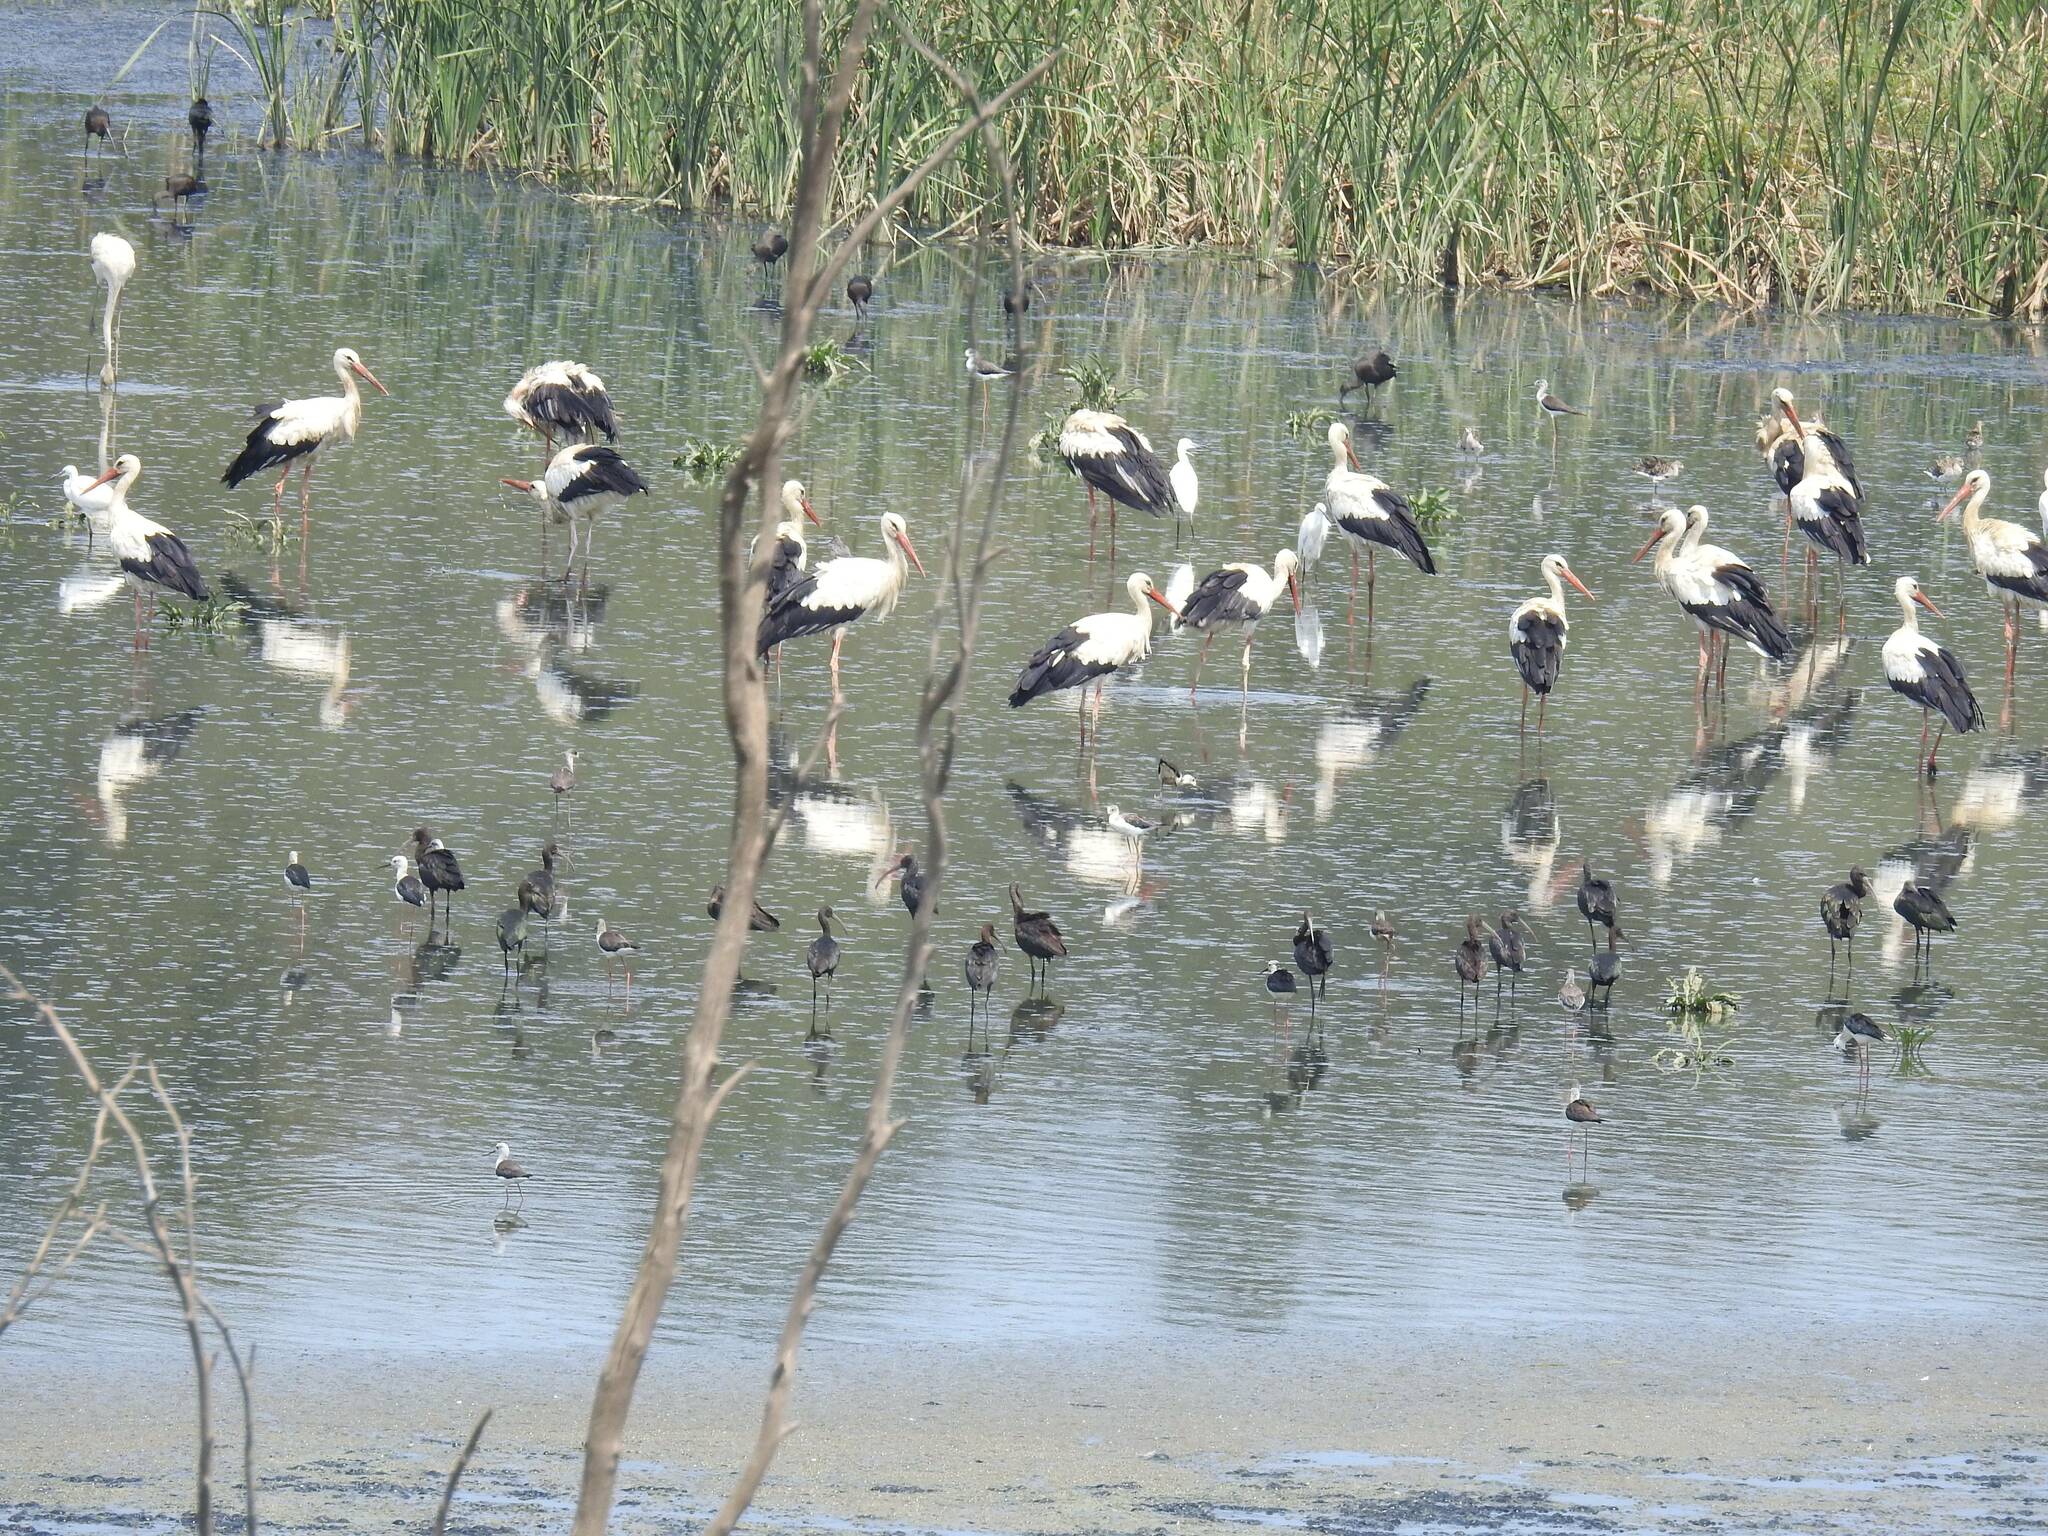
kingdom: Animalia
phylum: Chordata
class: Aves
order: Ciconiiformes
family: Ciconiidae
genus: Ciconia
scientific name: Ciconia ciconia
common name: White stork
